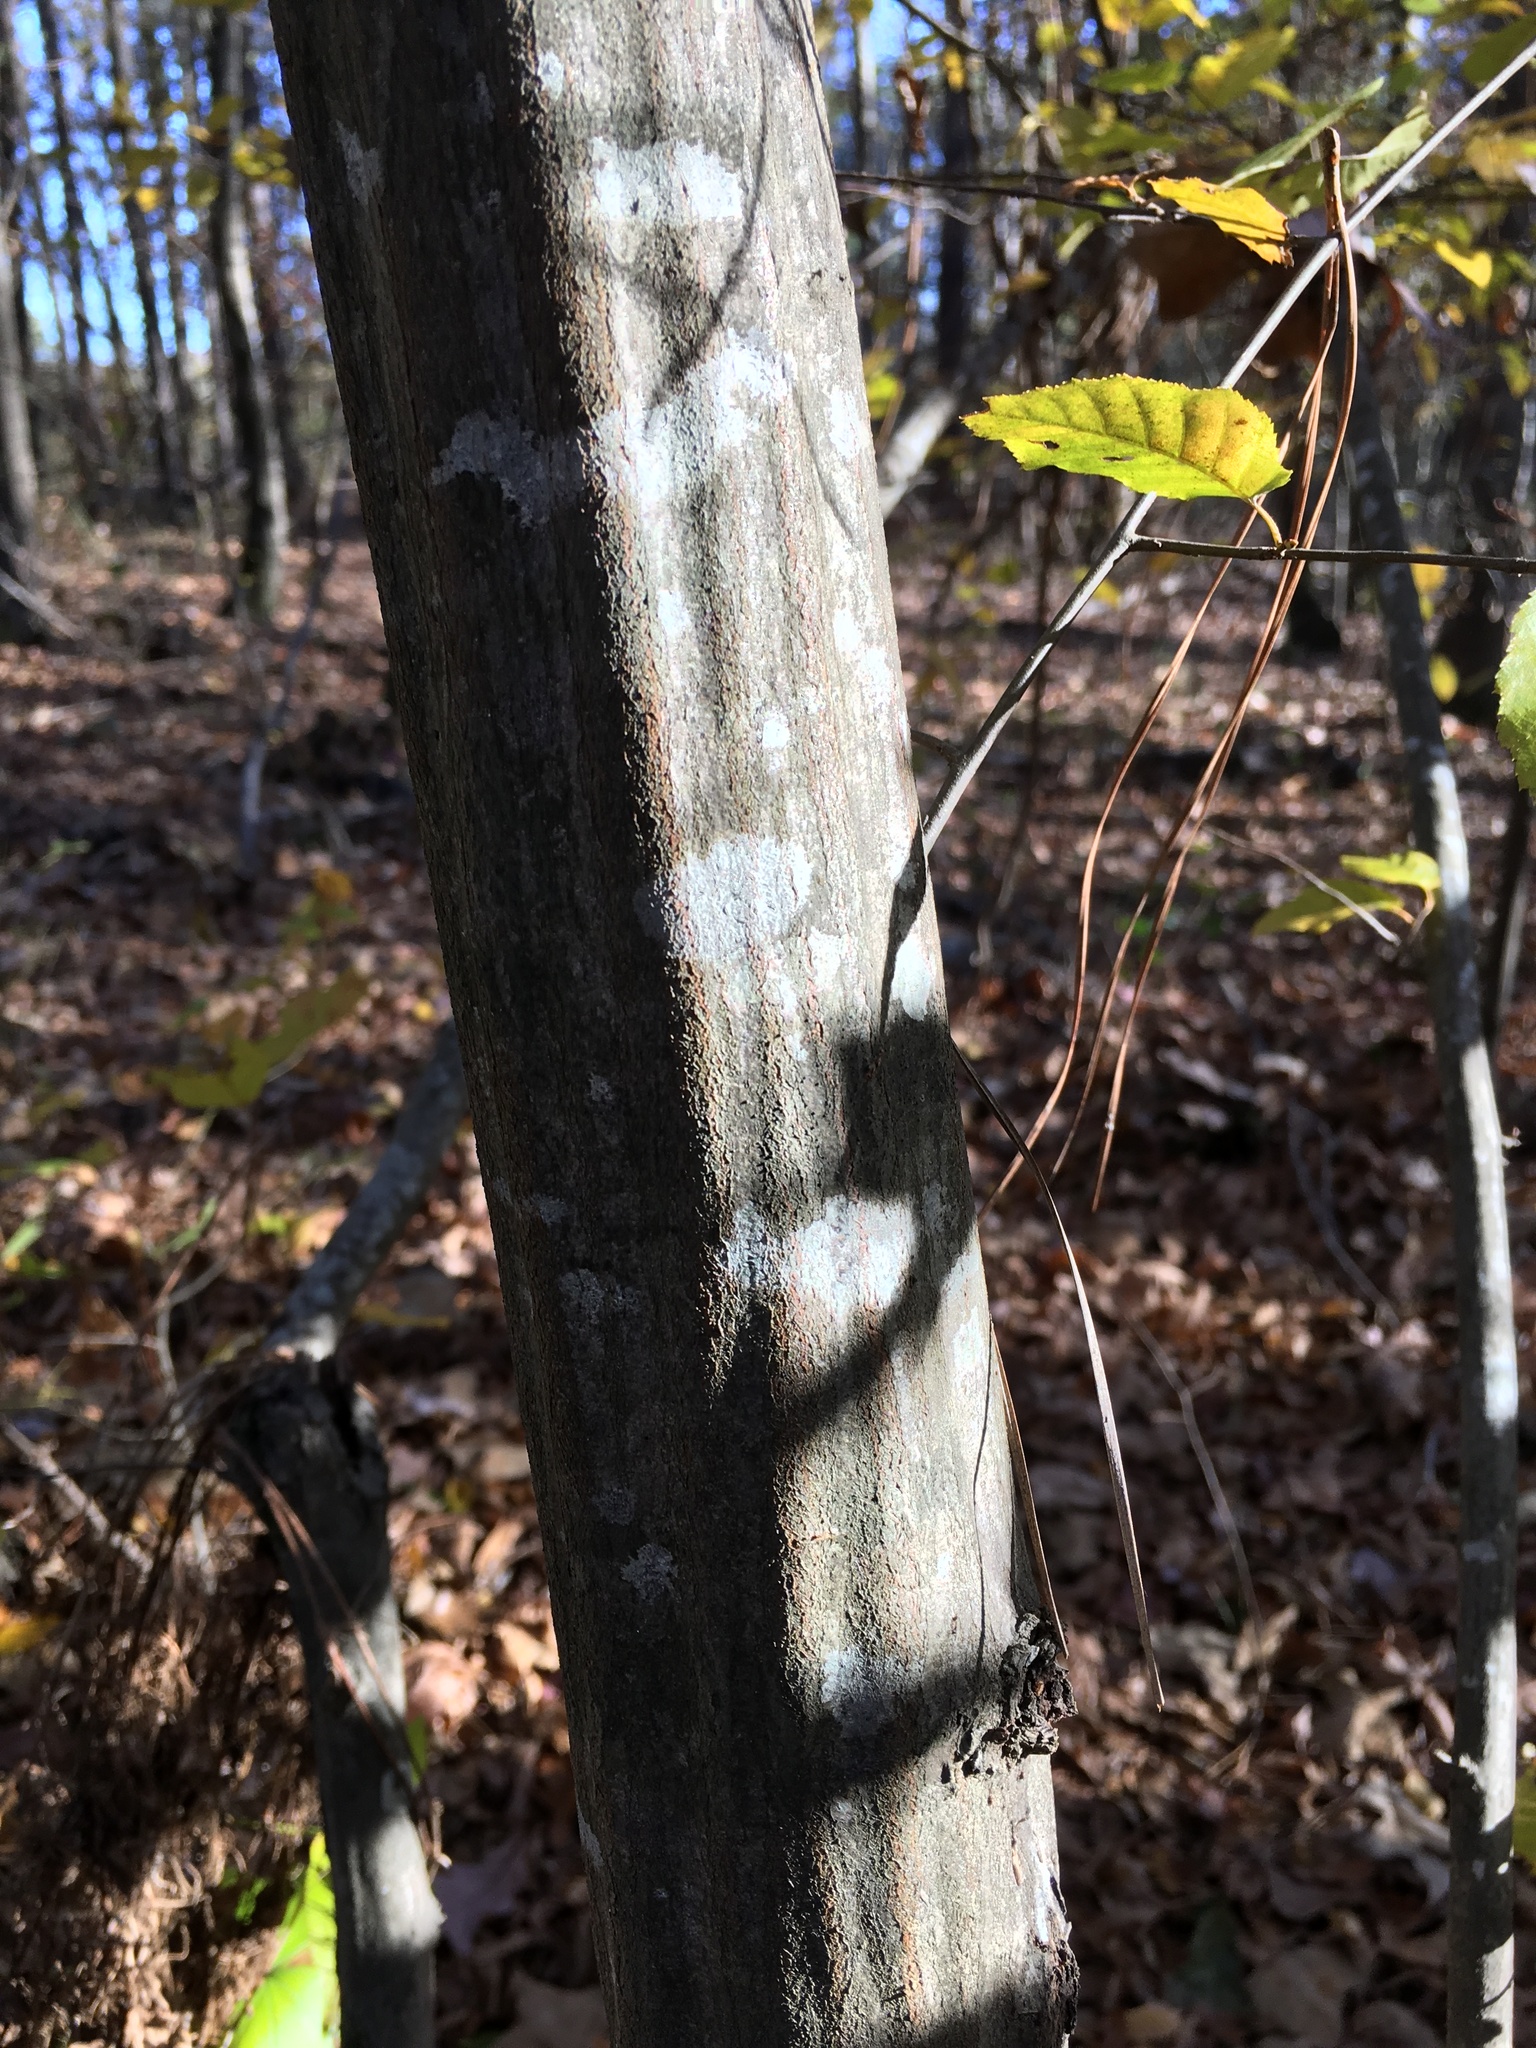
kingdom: Plantae
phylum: Tracheophyta
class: Magnoliopsida
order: Fagales
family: Betulaceae
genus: Carpinus
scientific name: Carpinus caroliniana
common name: American hornbeam
